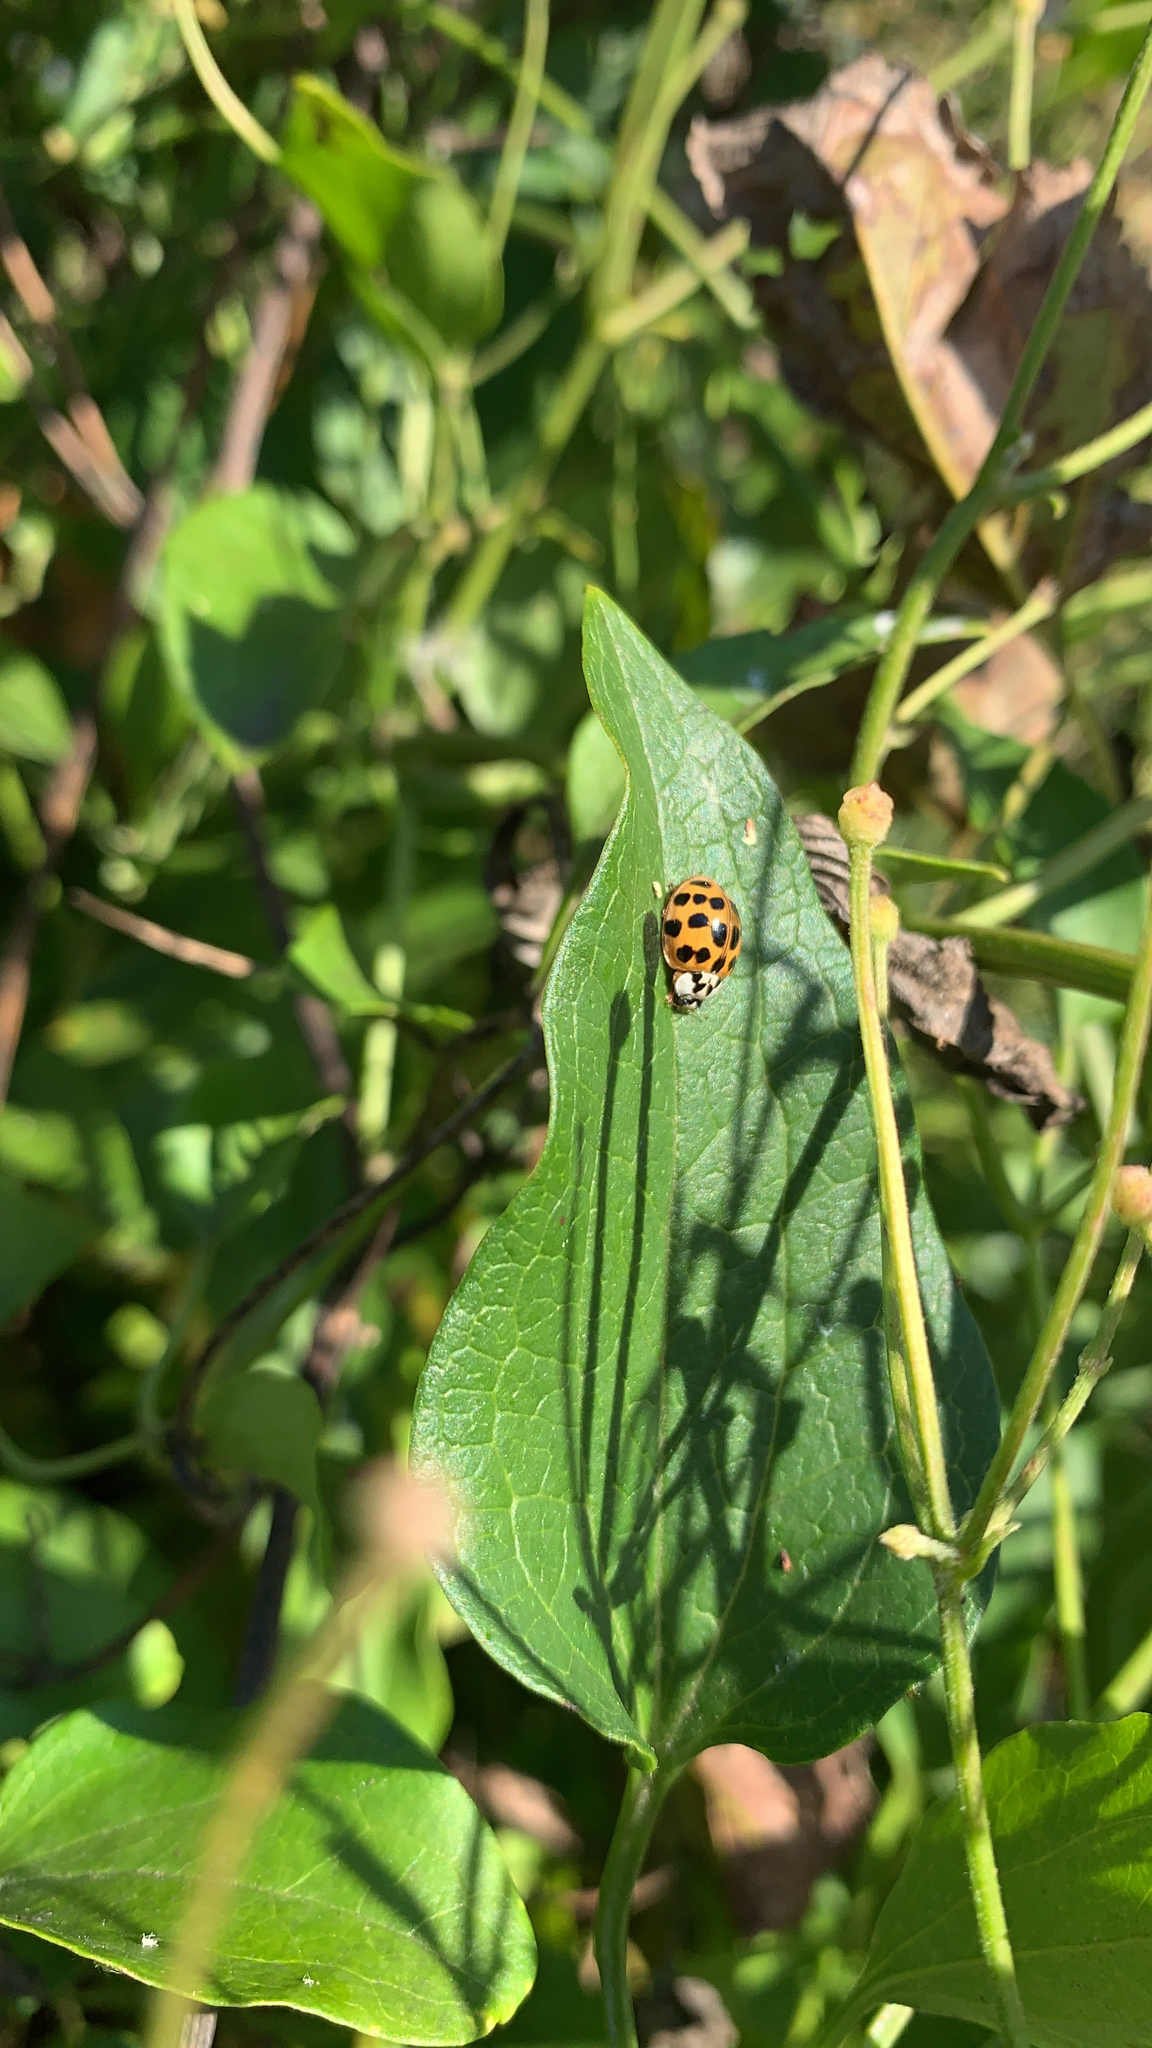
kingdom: Animalia
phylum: Arthropoda
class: Insecta
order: Coleoptera
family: Coccinellidae
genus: Harmonia
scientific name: Harmonia axyridis
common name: Harlequin ladybird
